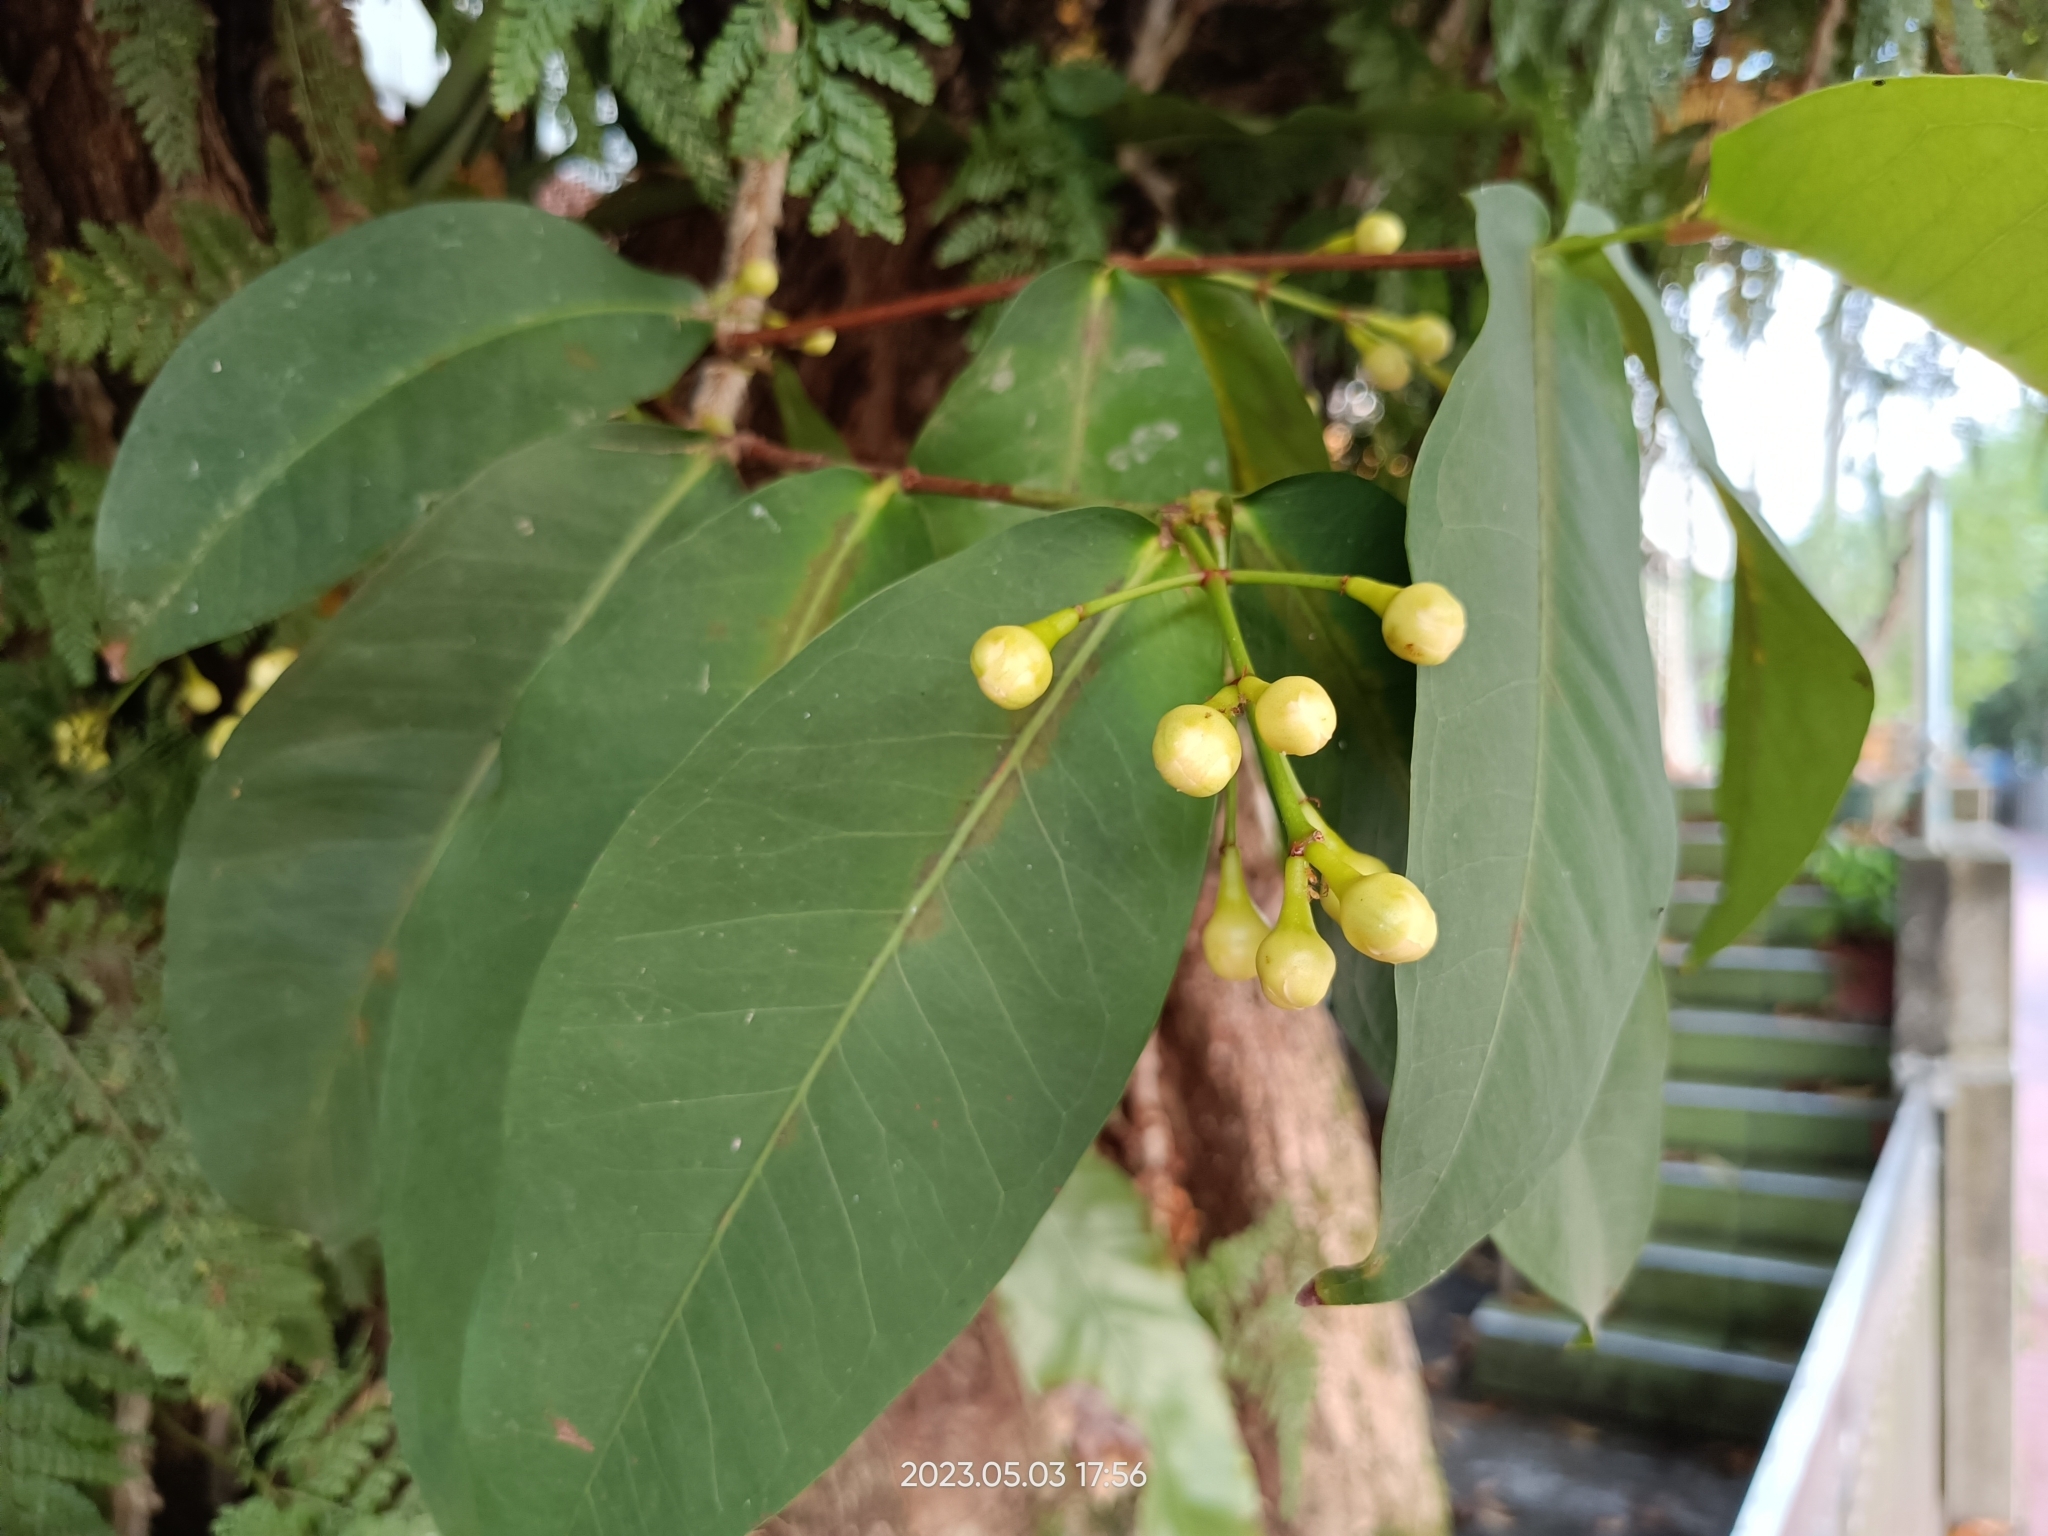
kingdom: Plantae
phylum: Tracheophyta
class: Magnoliopsida
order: Myrtales
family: Myrtaceae
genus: Syzygium
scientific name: Syzygium samarangense
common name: Semarang rose-apple
